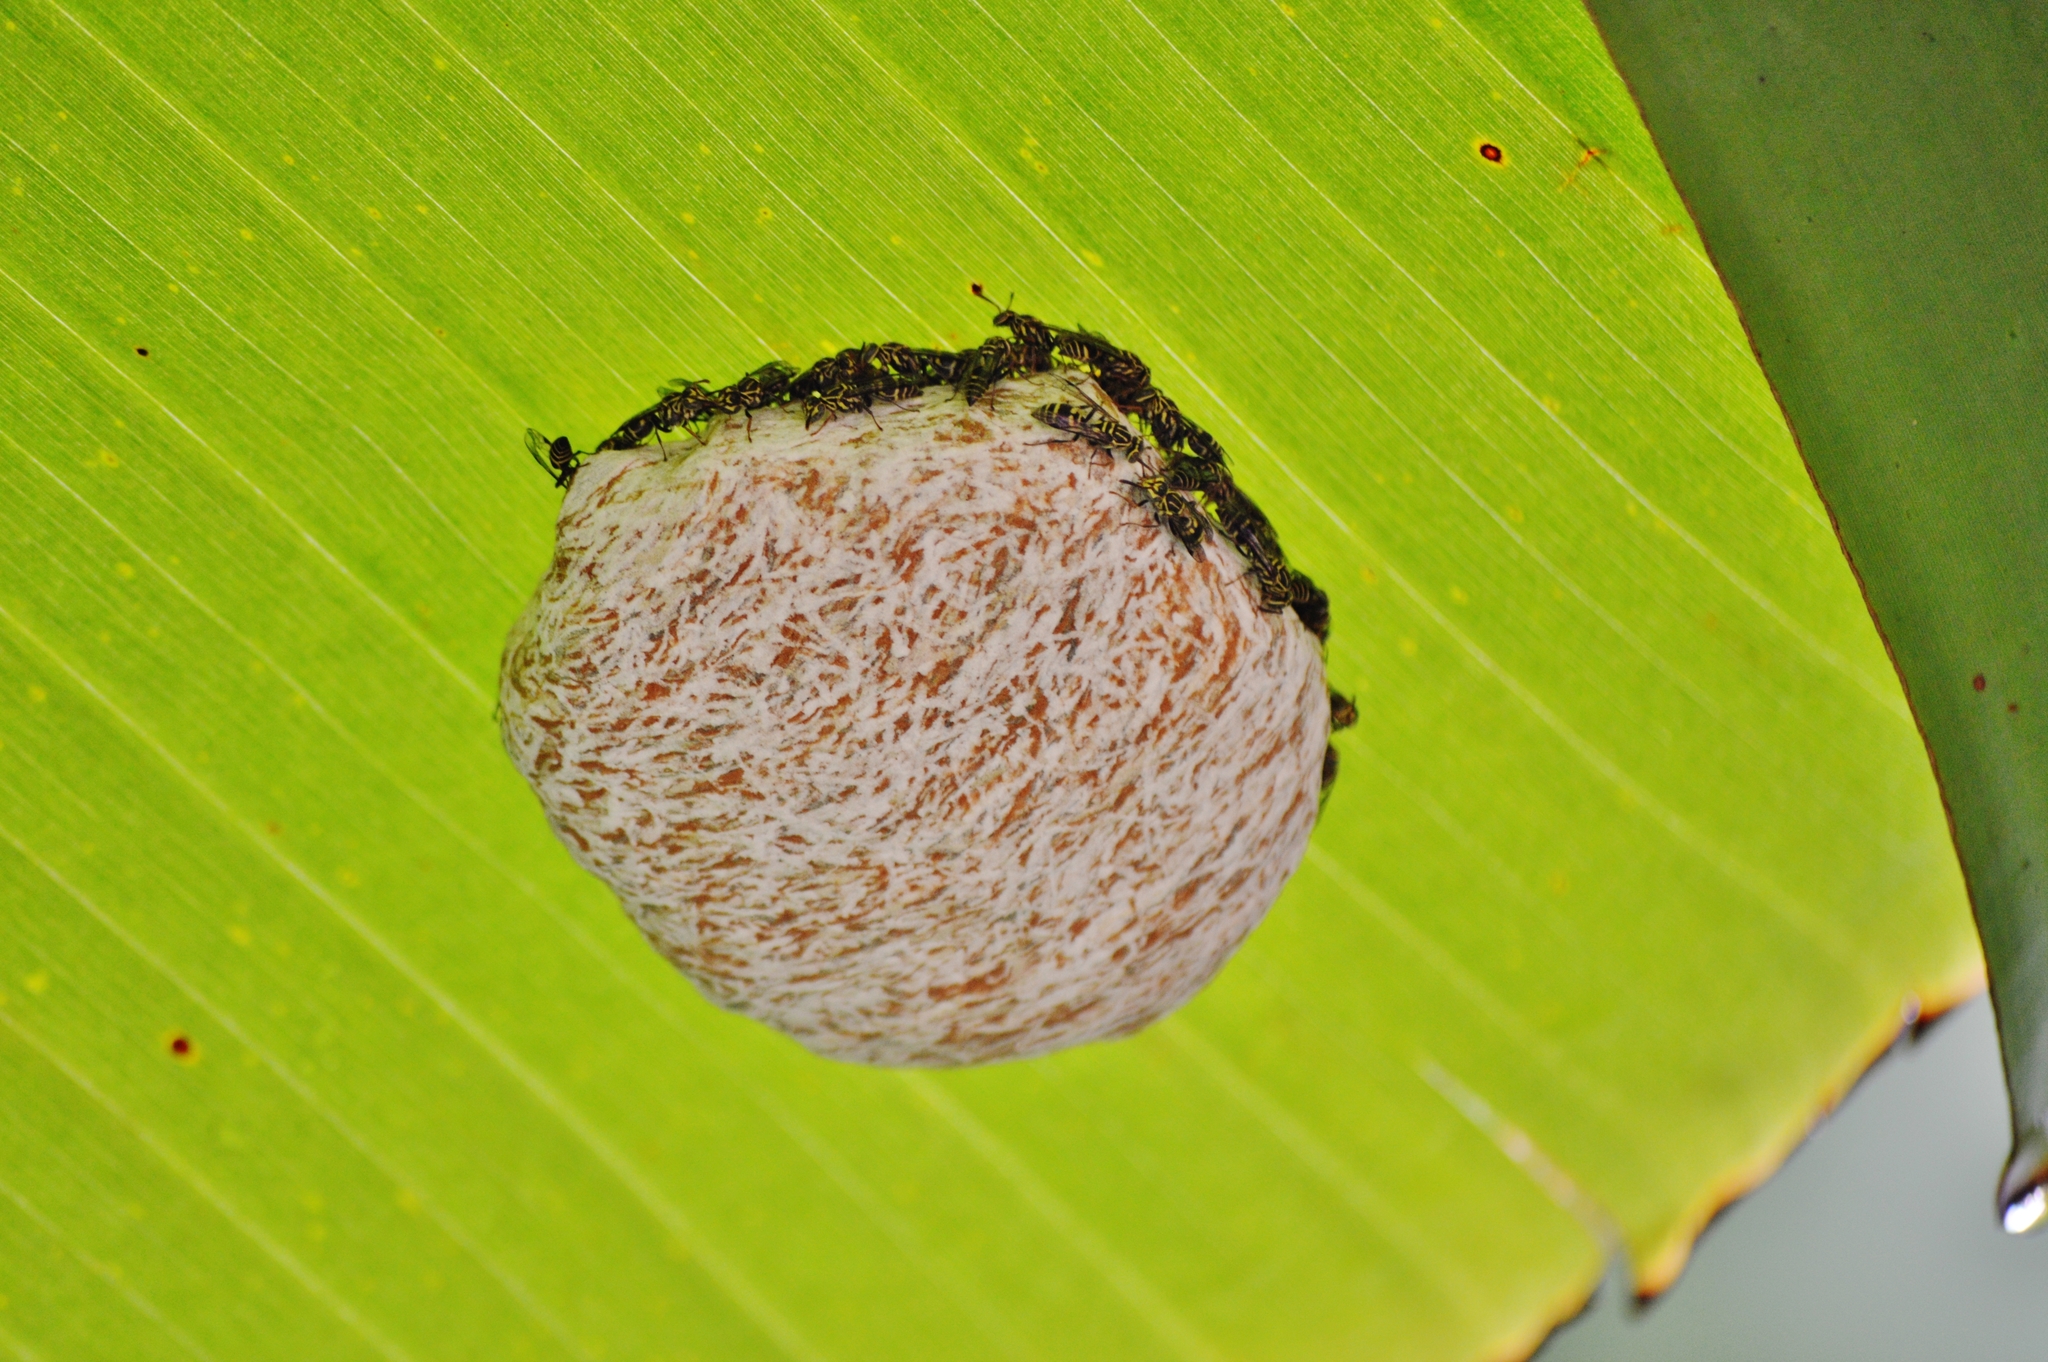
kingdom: Animalia
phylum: Arthropoda
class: Insecta
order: Hymenoptera
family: Vespidae
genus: Protopolybia
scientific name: Protopolybia exigua
